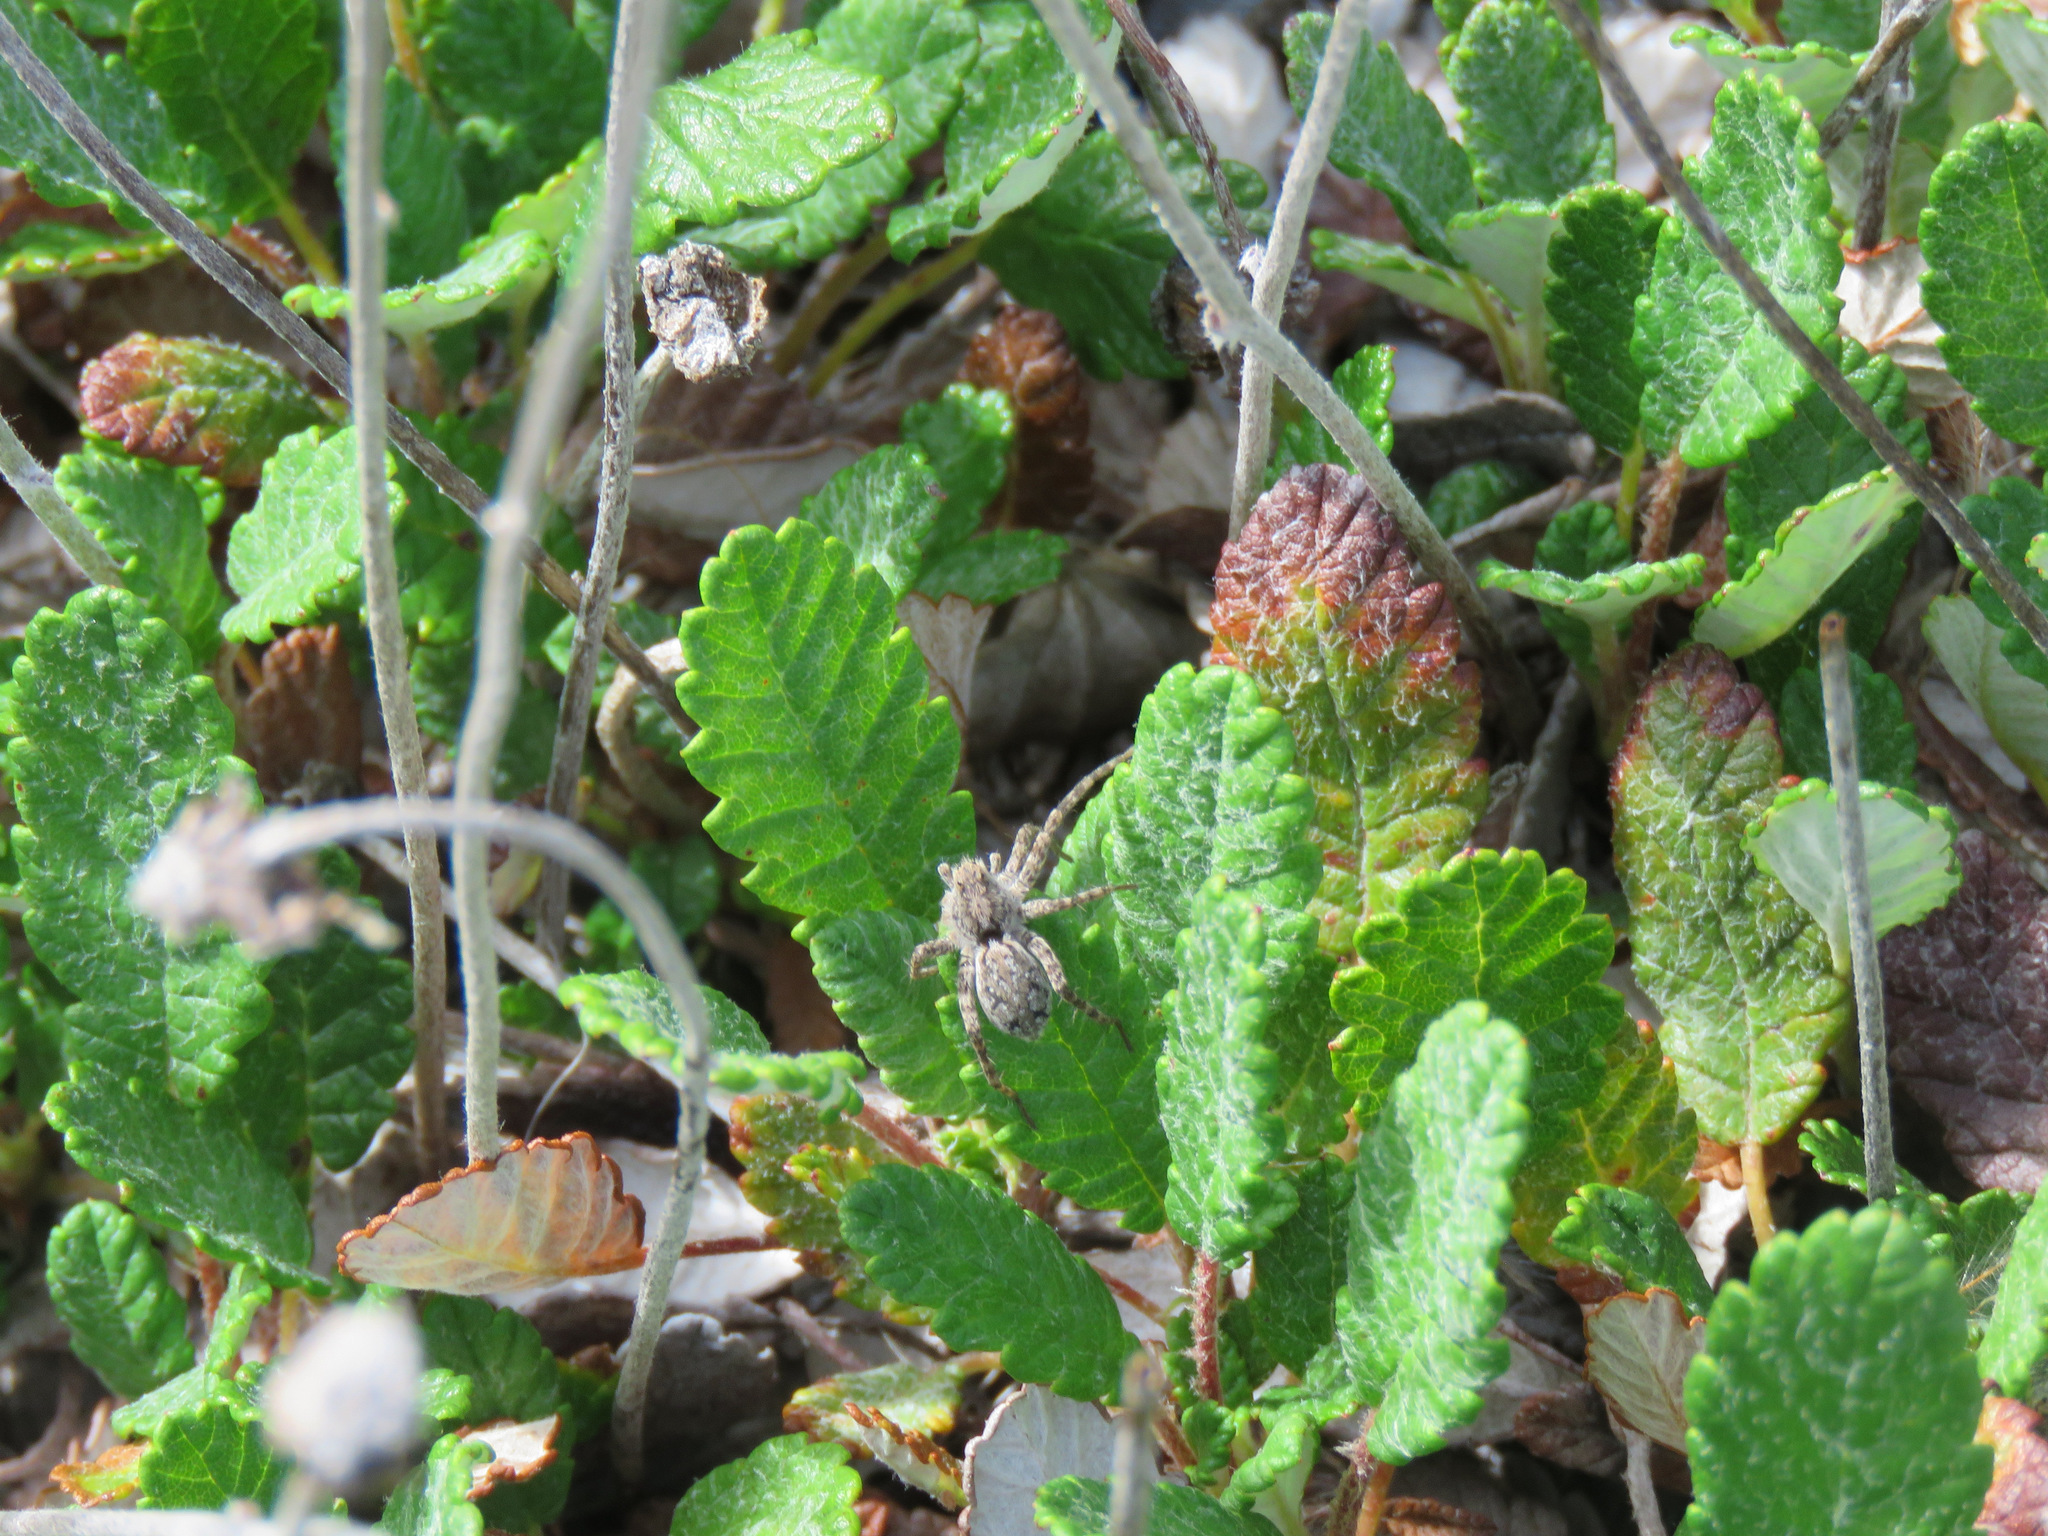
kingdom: Plantae
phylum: Tracheophyta
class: Magnoliopsida
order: Rosales
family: Rosaceae
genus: Dryas
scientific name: Dryas drummondii
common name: Drummond's dryad
